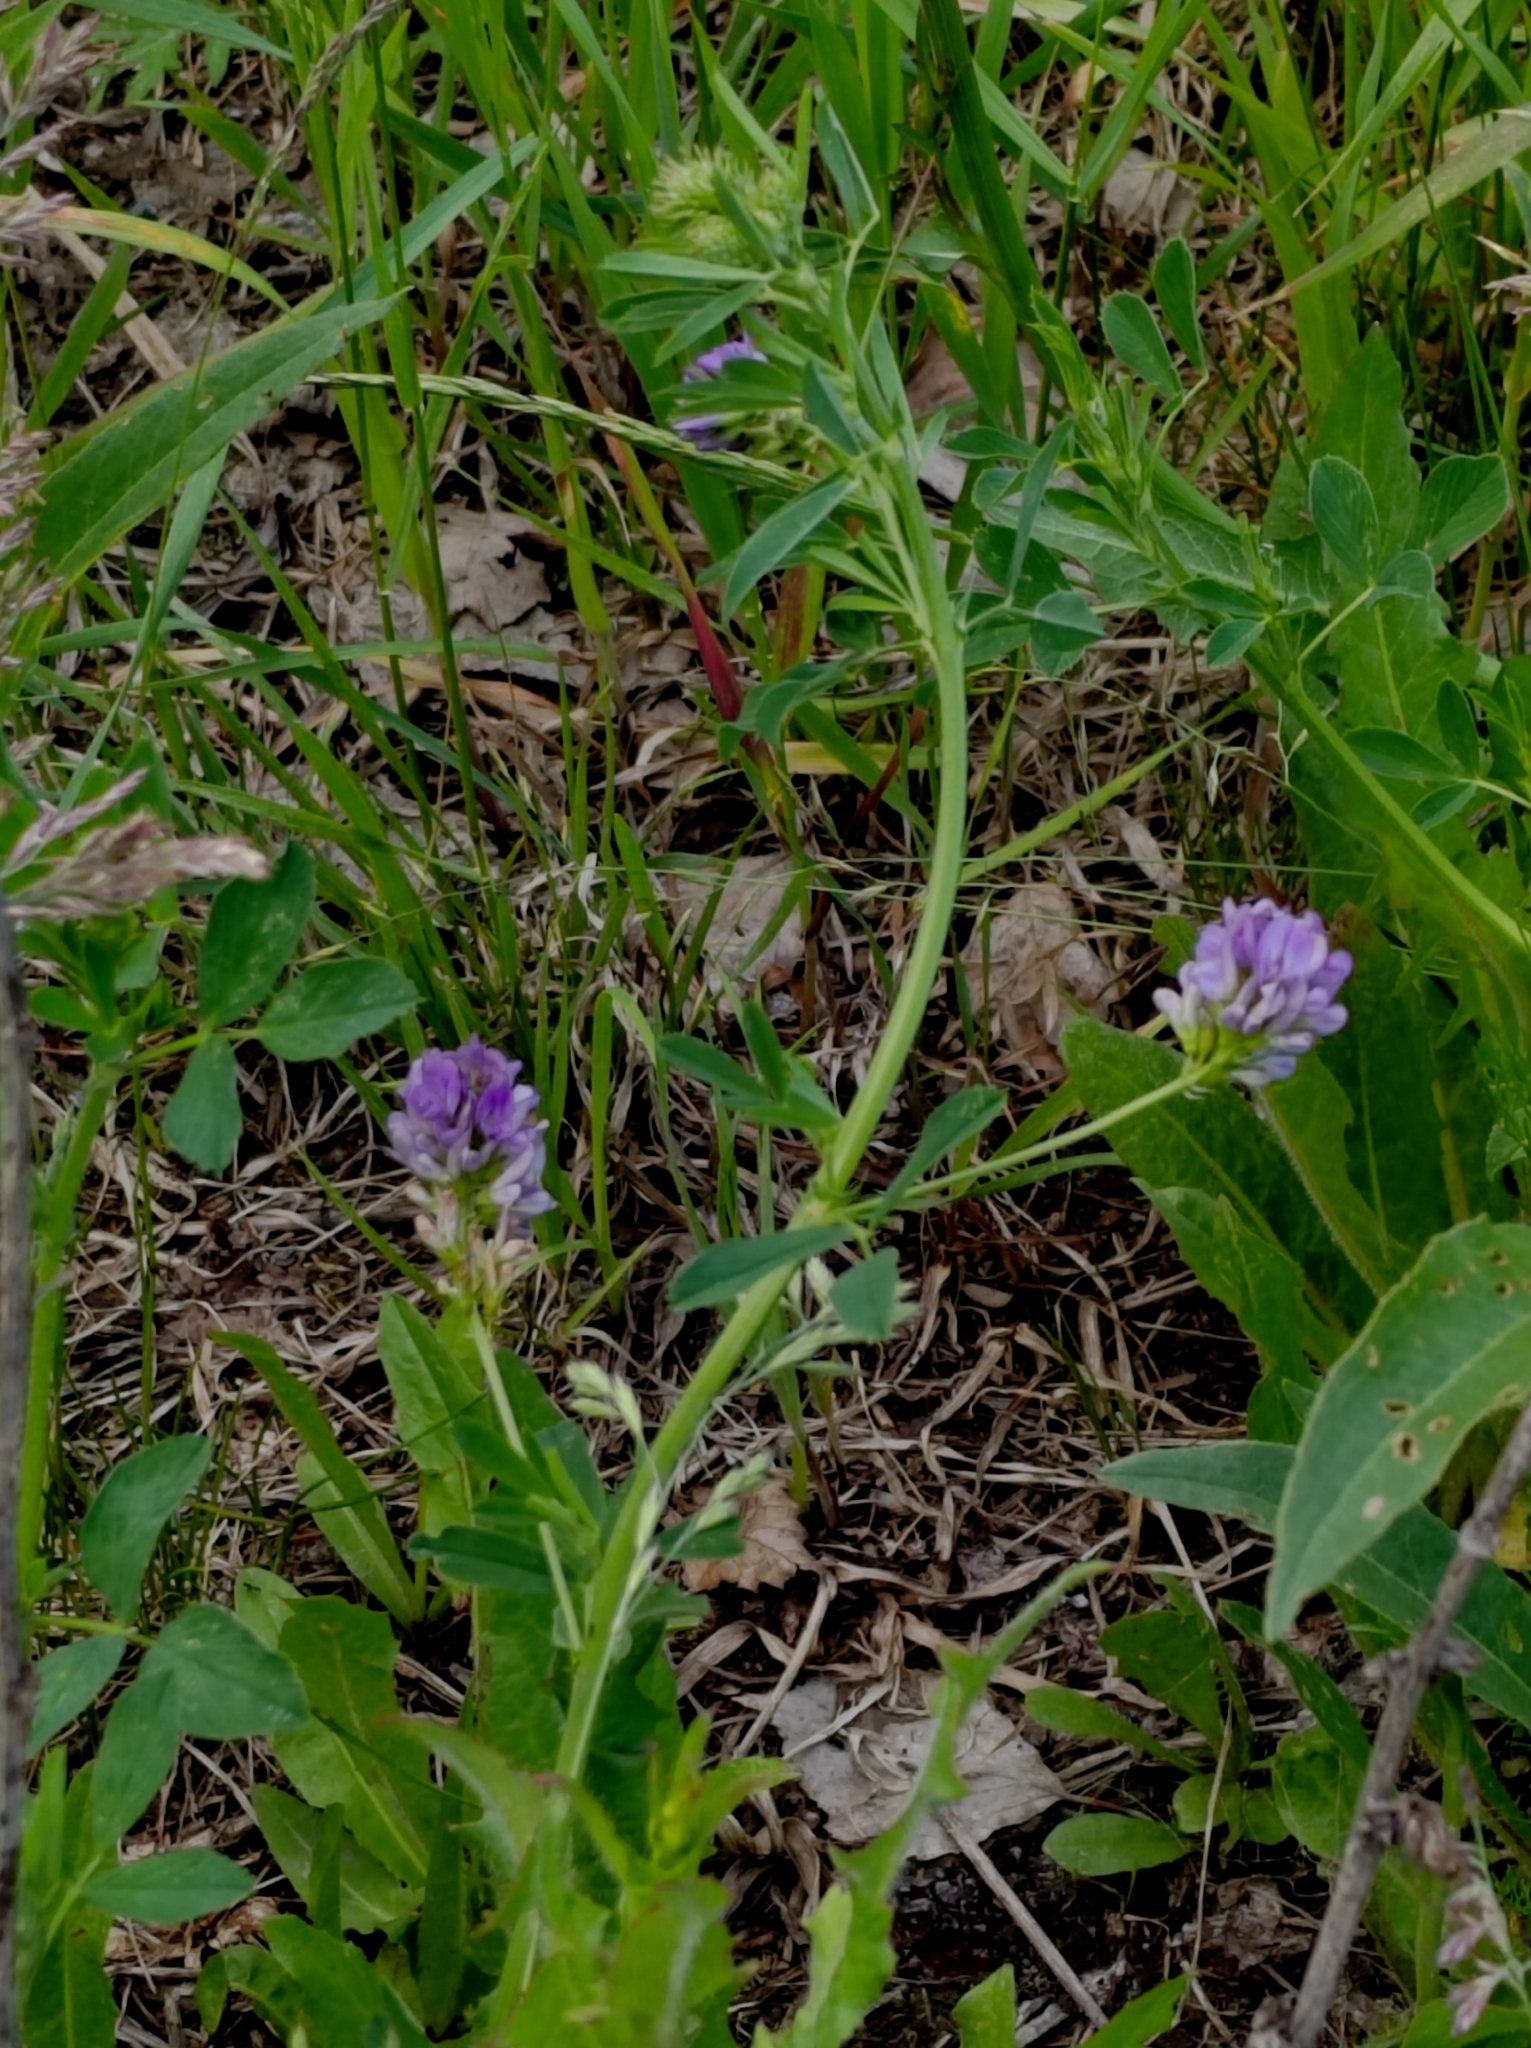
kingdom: Plantae
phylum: Tracheophyta
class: Magnoliopsida
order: Fabales
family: Fabaceae
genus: Medicago
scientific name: Medicago varia
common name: Sand lucerne
